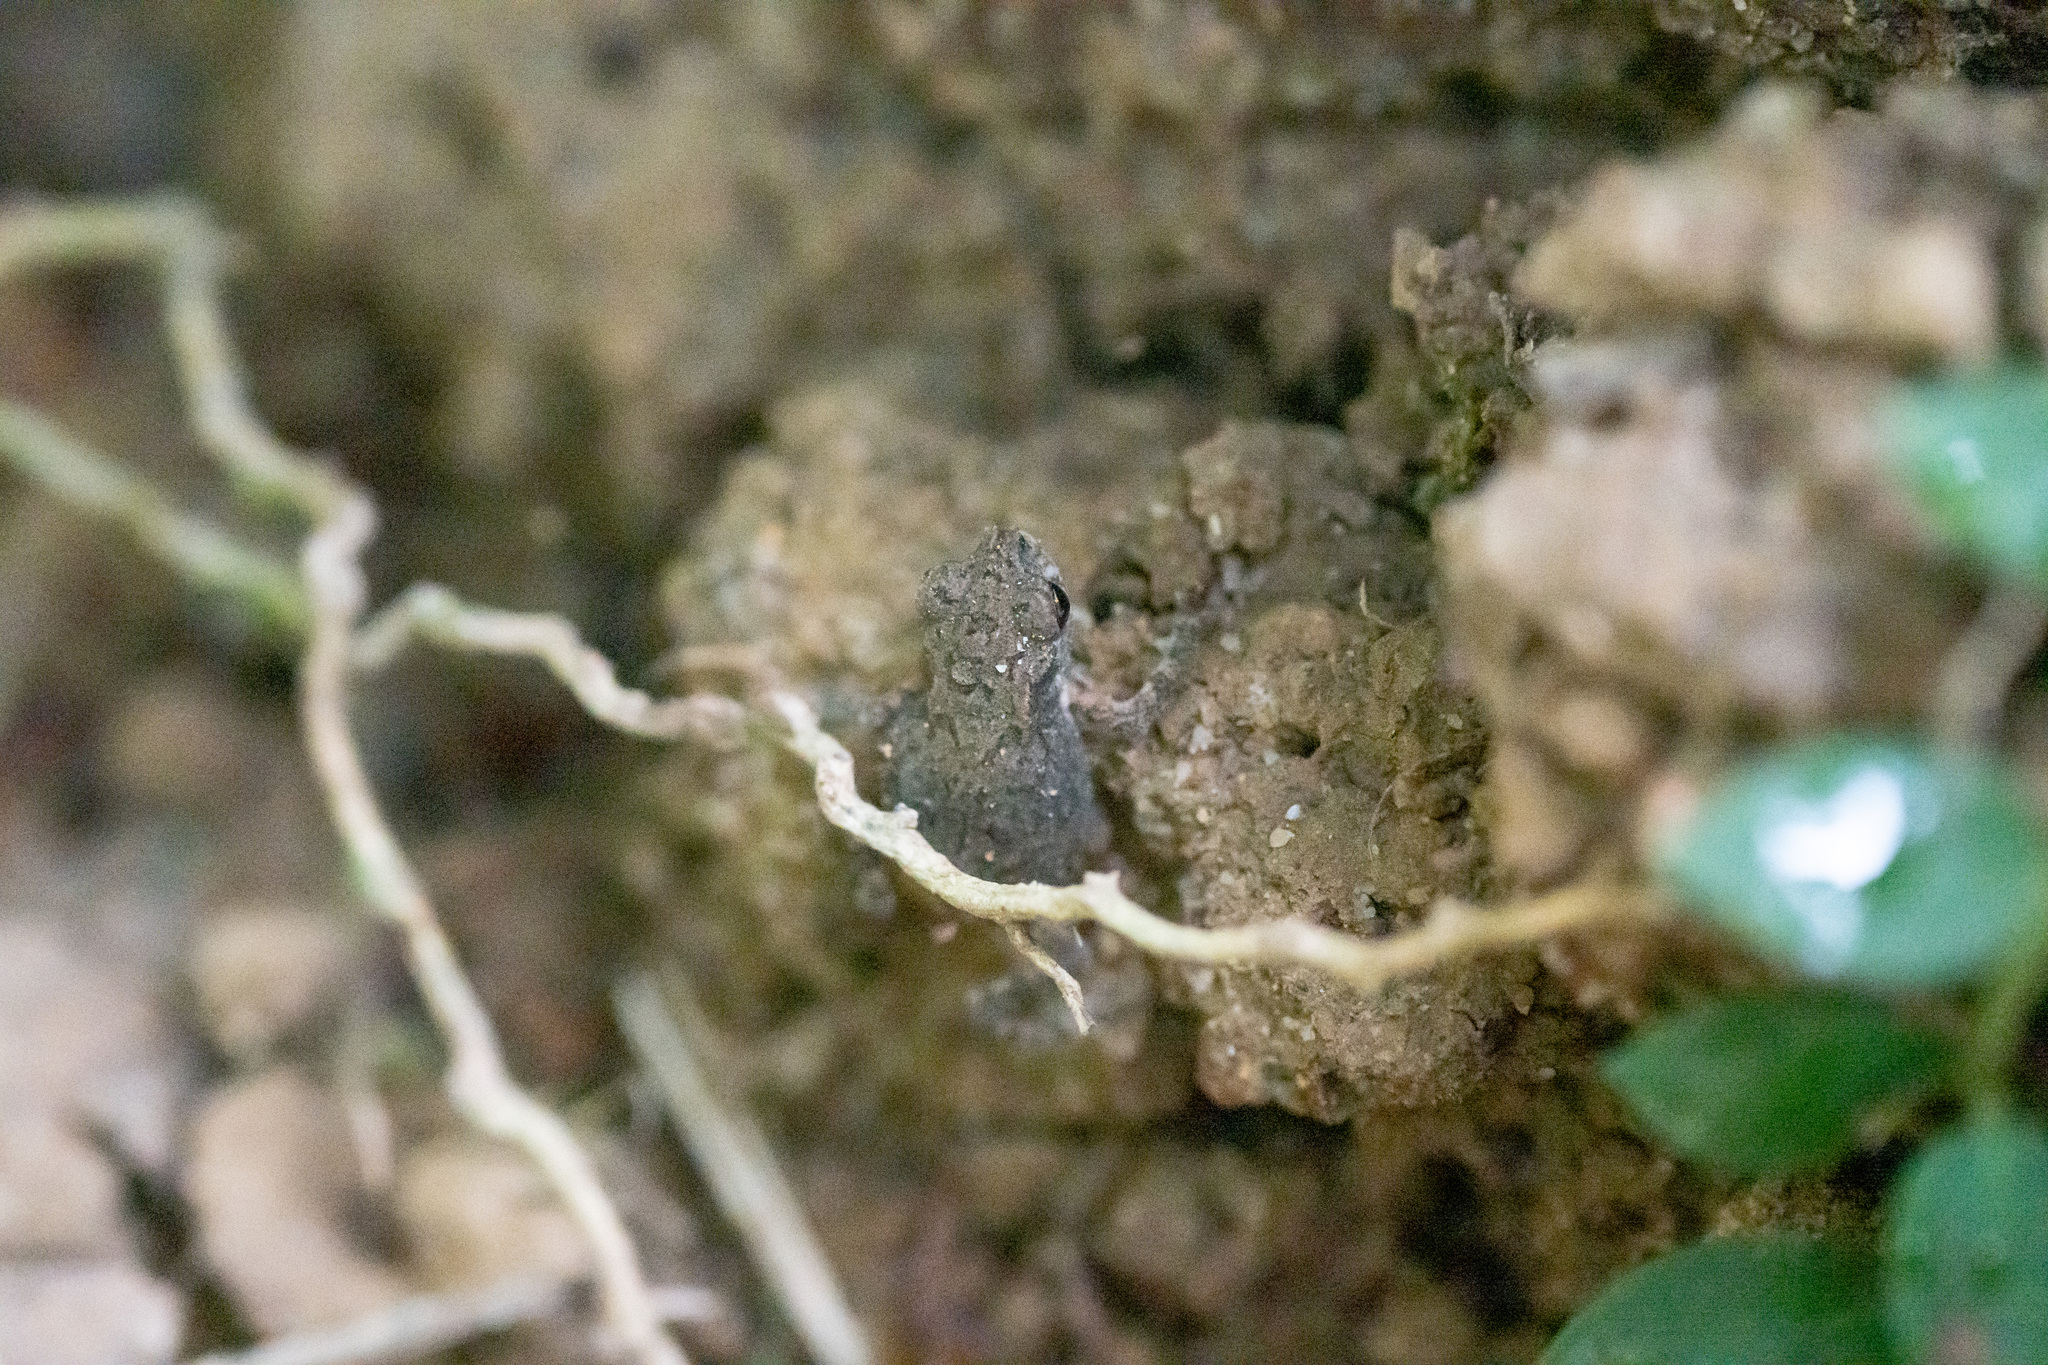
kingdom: Animalia
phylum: Chordata
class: Amphibia
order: Anura
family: Bufonidae
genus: Duttaphrynus
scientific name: Duttaphrynus melanostictus
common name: Common sunda toad
